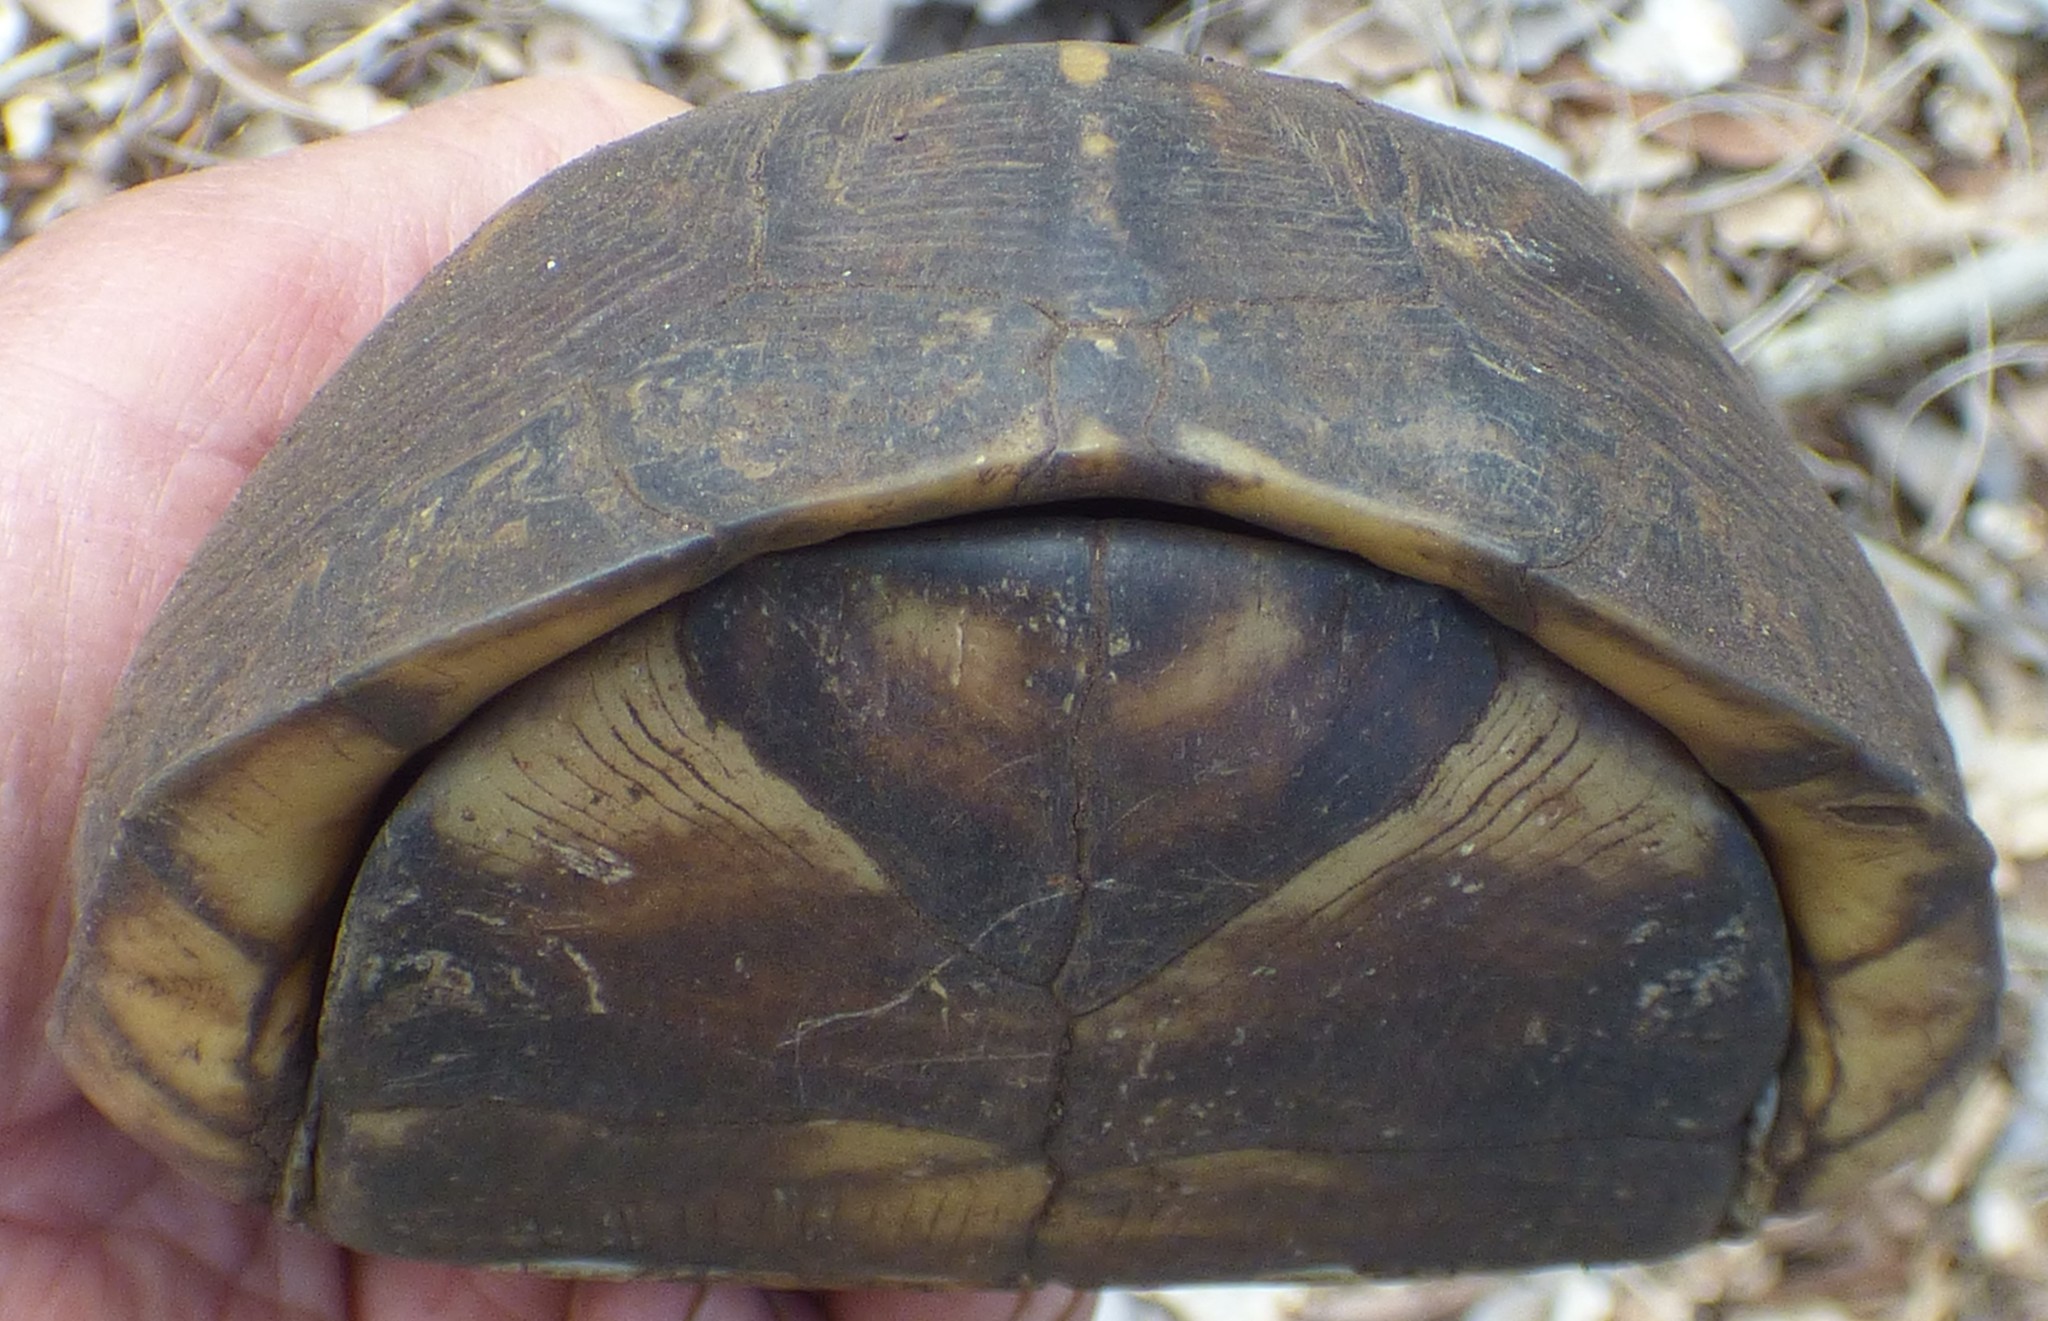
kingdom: Animalia
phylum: Chordata
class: Testudines
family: Emydidae
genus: Terrapene
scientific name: Terrapene carolina
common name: Common box turtle
